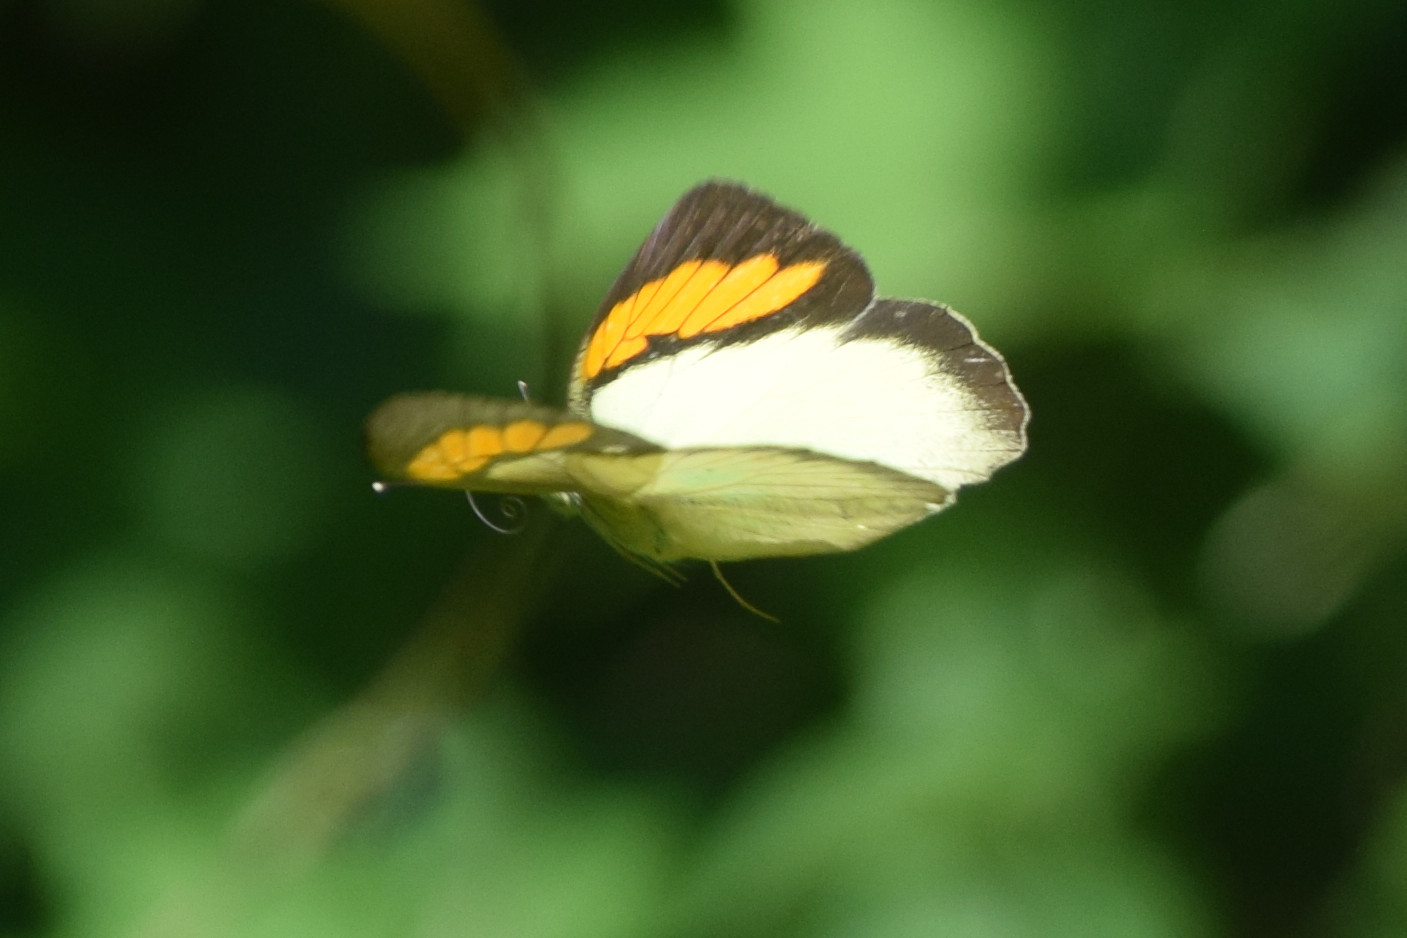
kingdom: Animalia
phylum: Arthropoda
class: Insecta
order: Lepidoptera
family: Pieridae
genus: Ixias
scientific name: Ixias pyrene
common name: Yellow orange tip
